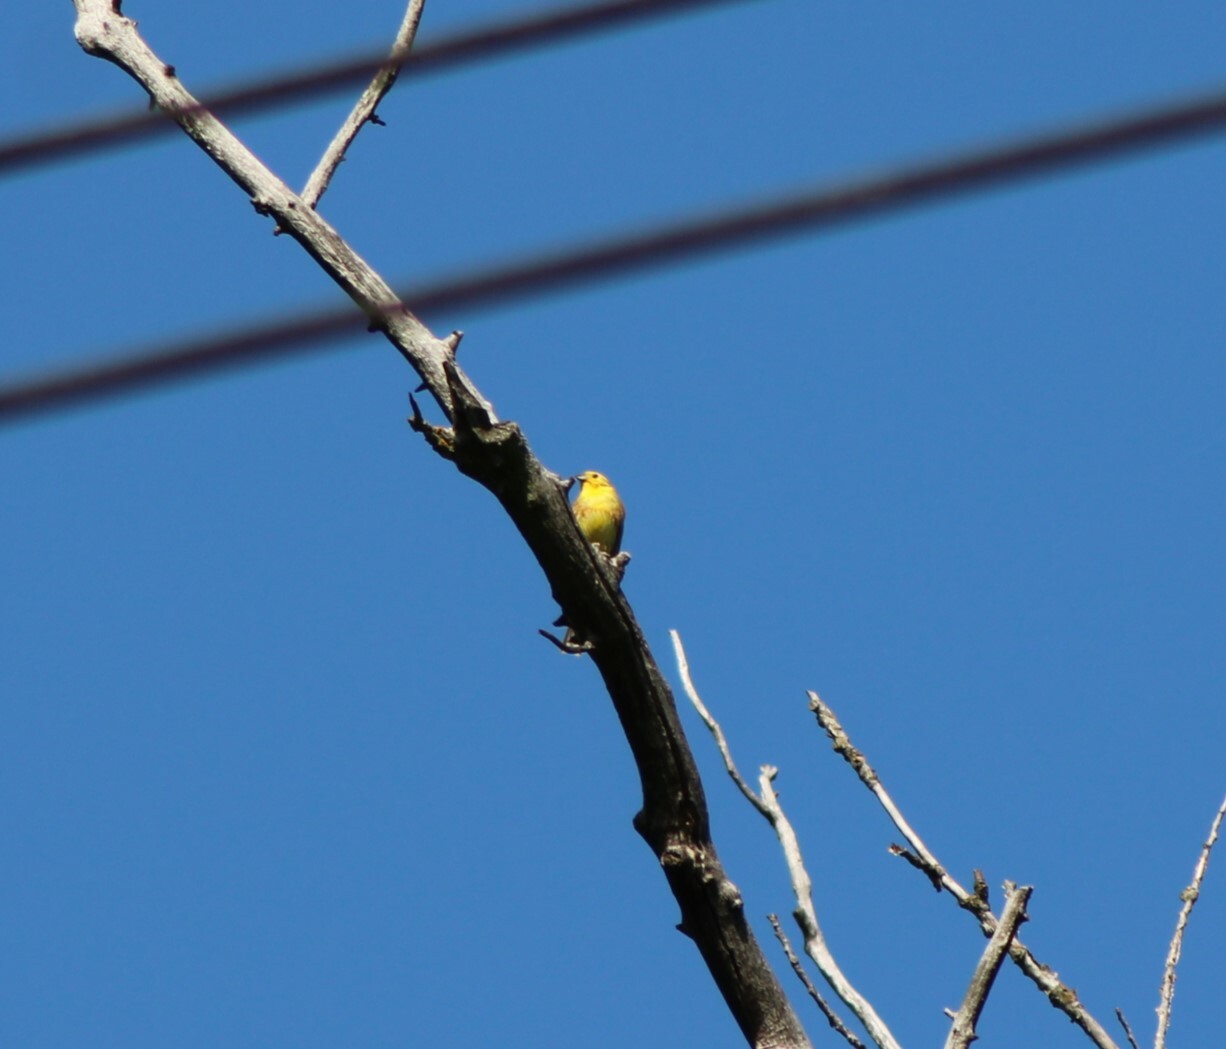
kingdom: Animalia
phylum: Chordata
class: Aves
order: Passeriformes
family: Emberizidae
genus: Emberiza
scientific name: Emberiza citrinella
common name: Yellowhammer
